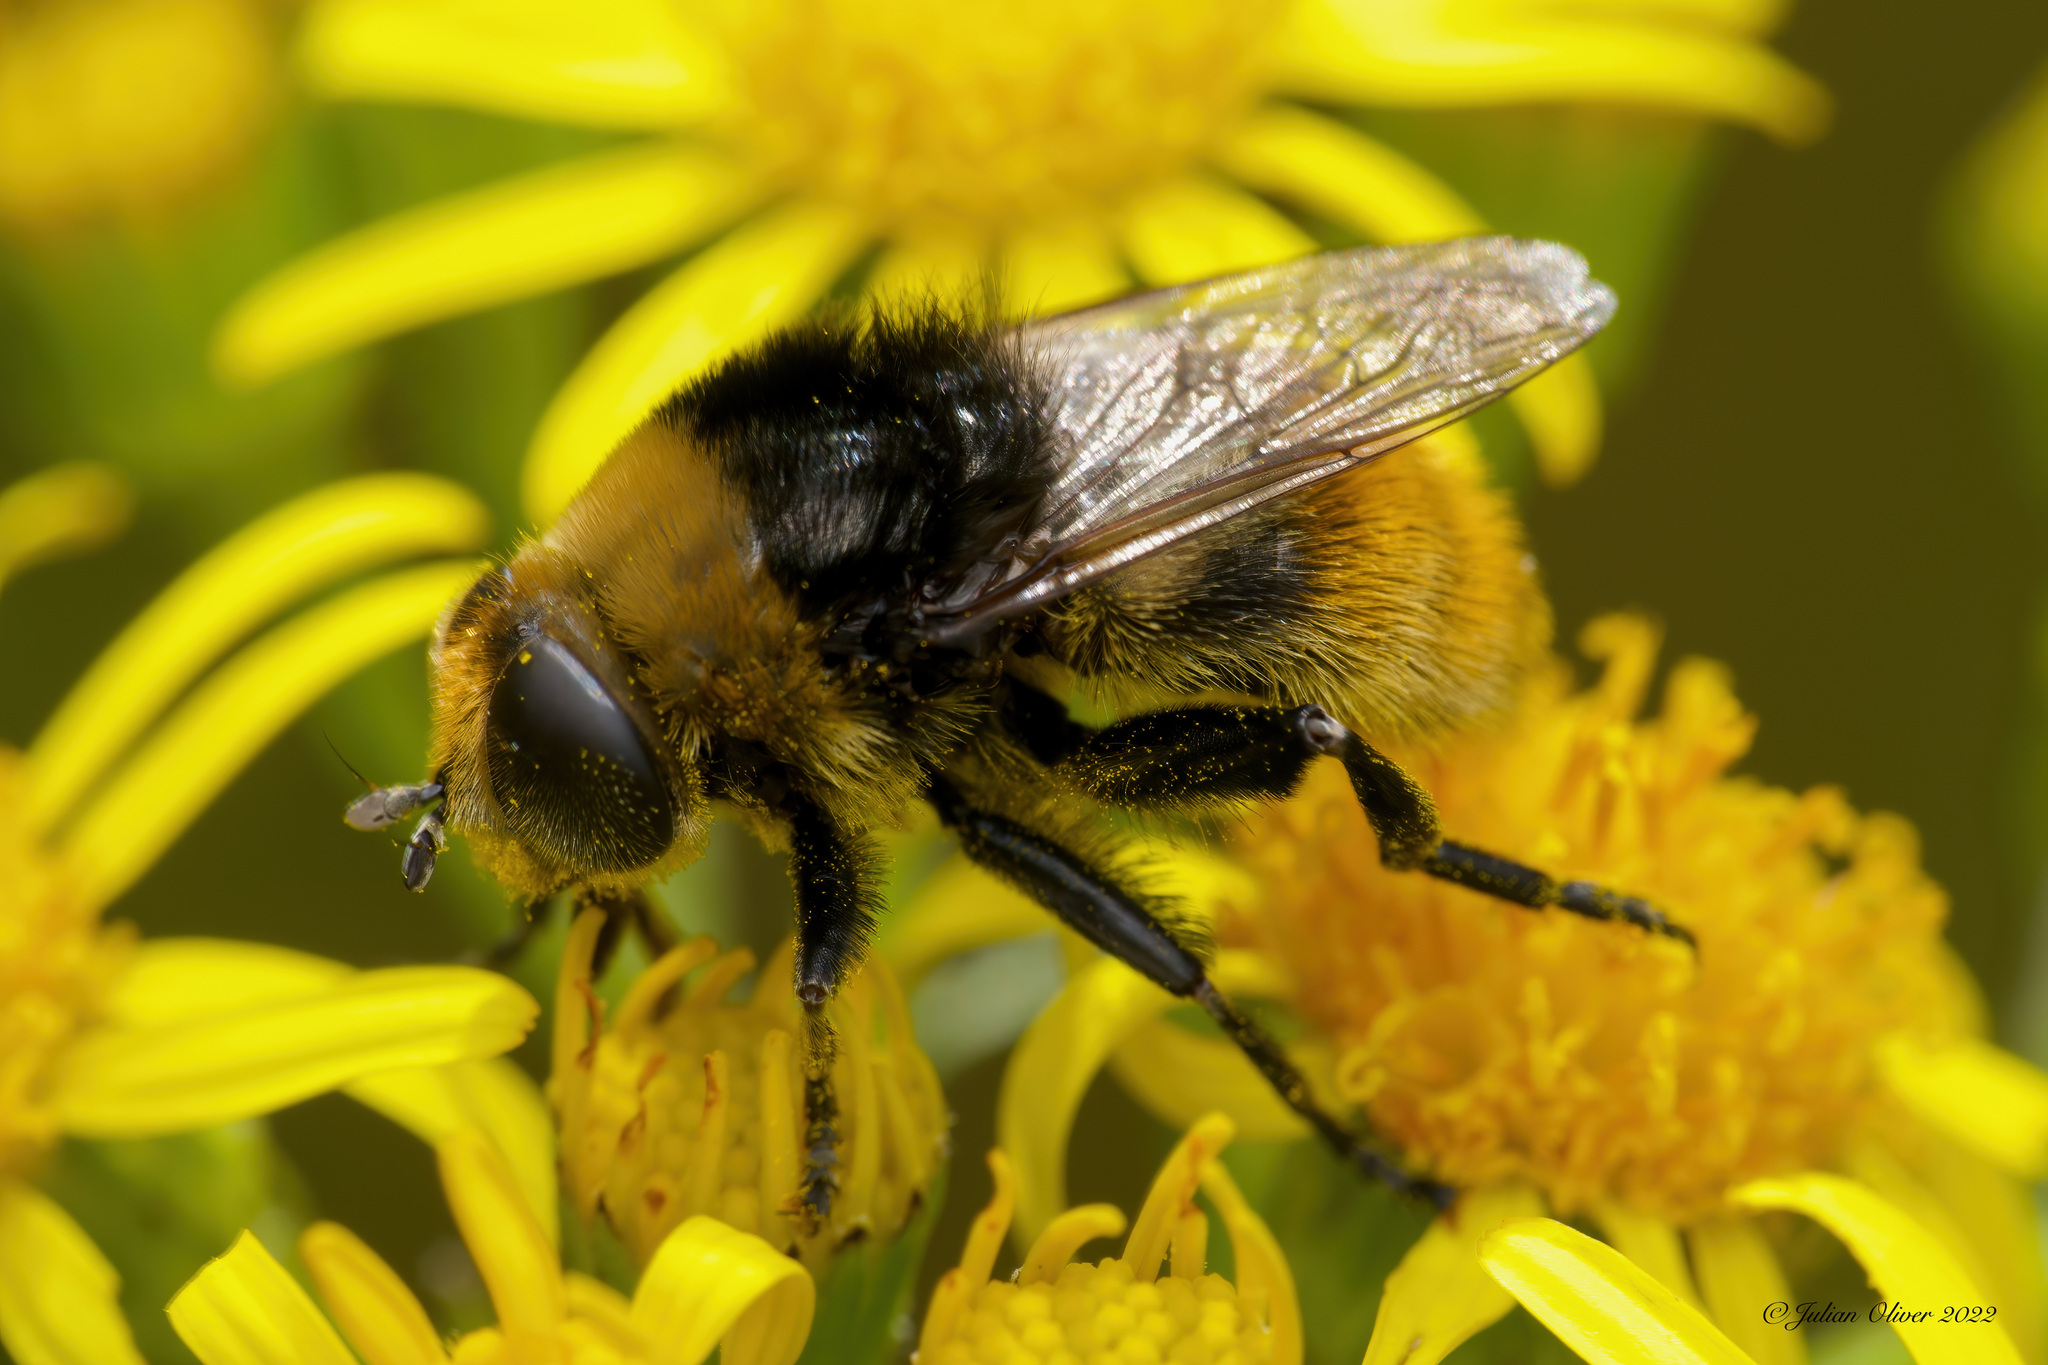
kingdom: Animalia
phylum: Arthropoda
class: Insecta
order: Diptera
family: Syrphidae
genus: Merodon
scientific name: Merodon equestris
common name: Greater bulb-fly
